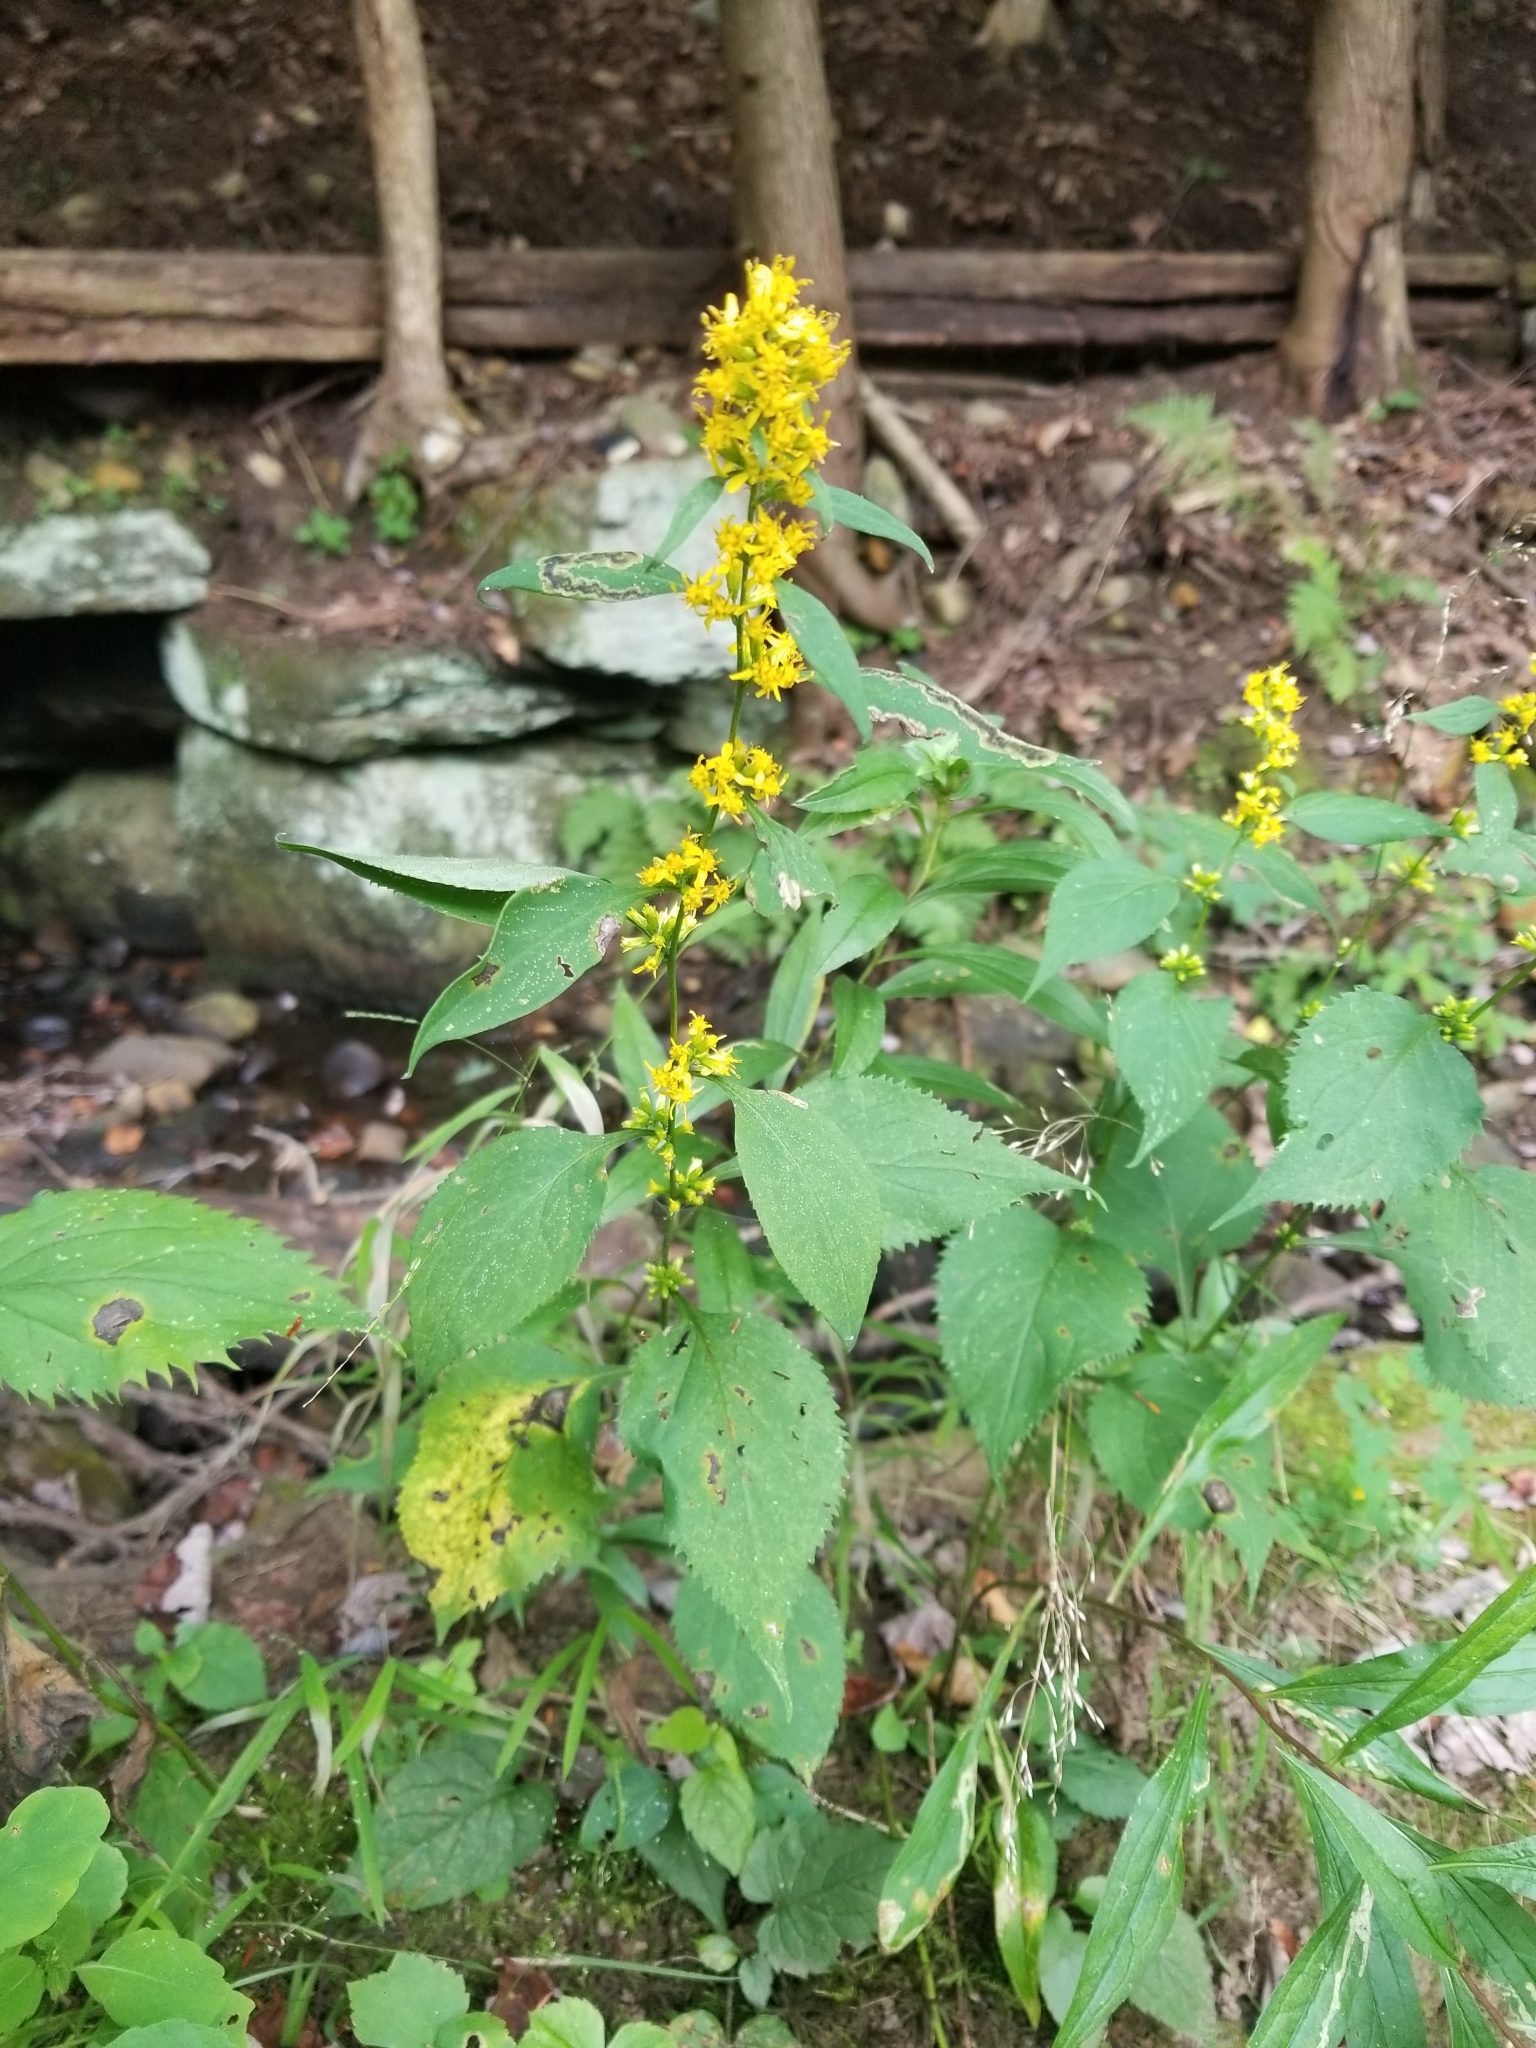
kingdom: Plantae
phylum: Tracheophyta
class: Magnoliopsida
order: Asterales
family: Asteraceae
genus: Solidago
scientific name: Solidago flexicaulis
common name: Zig-zag goldenrod
